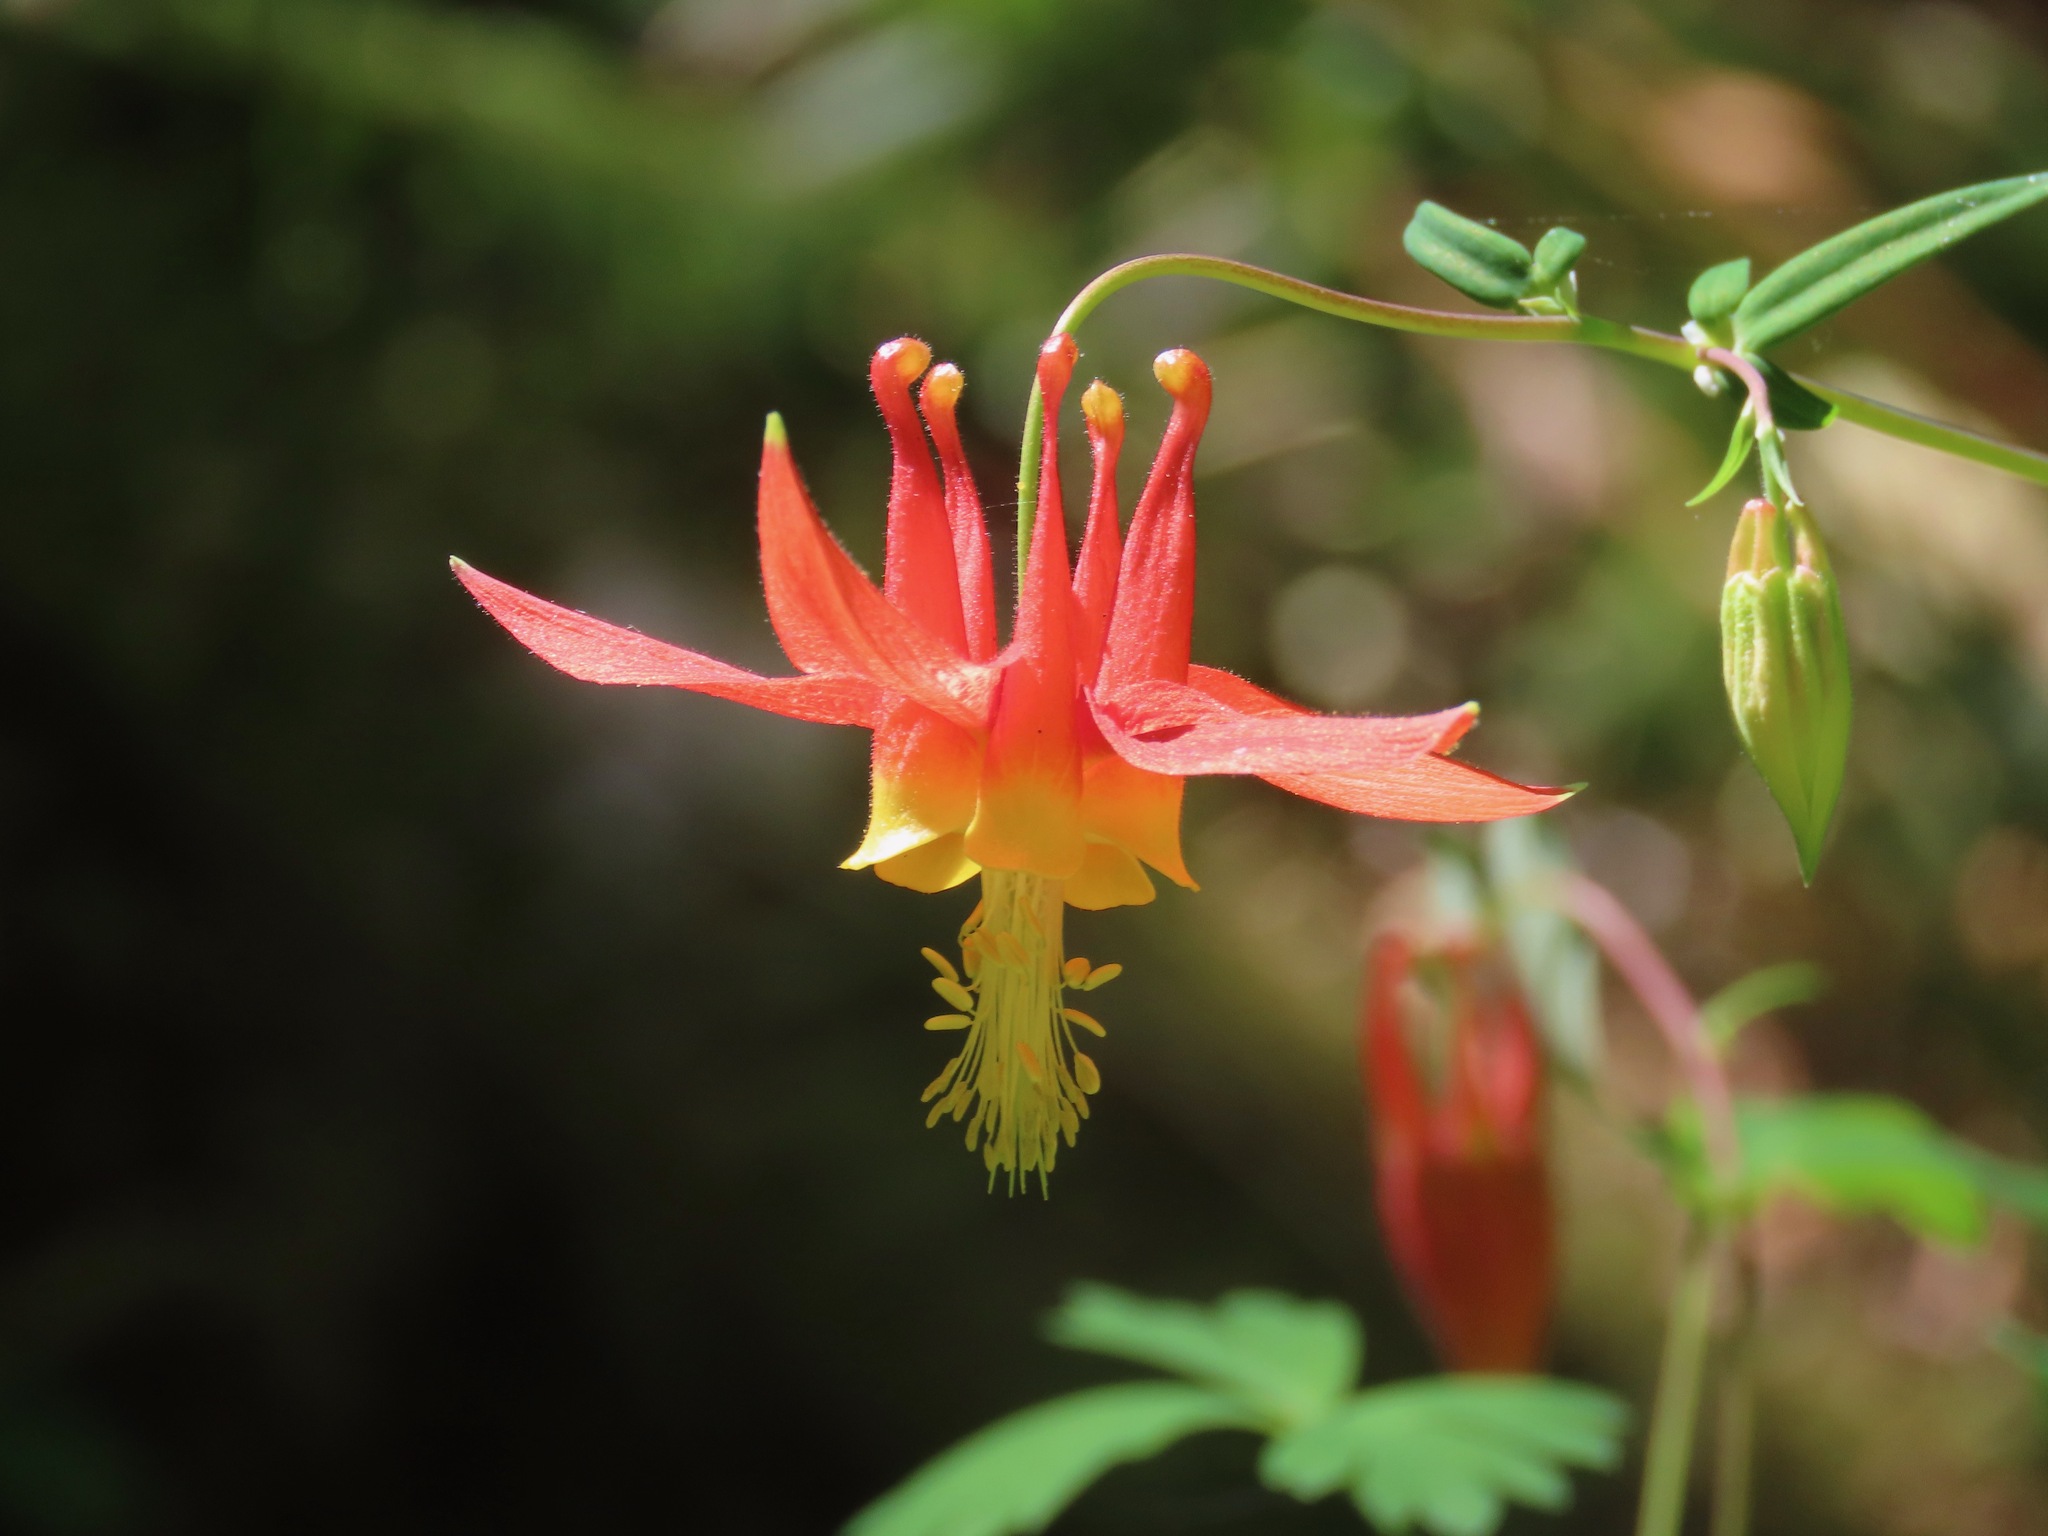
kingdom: Plantae
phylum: Tracheophyta
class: Magnoliopsida
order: Ranunculales
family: Ranunculaceae
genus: Aquilegia
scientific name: Aquilegia formosa
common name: Sitka columbine
